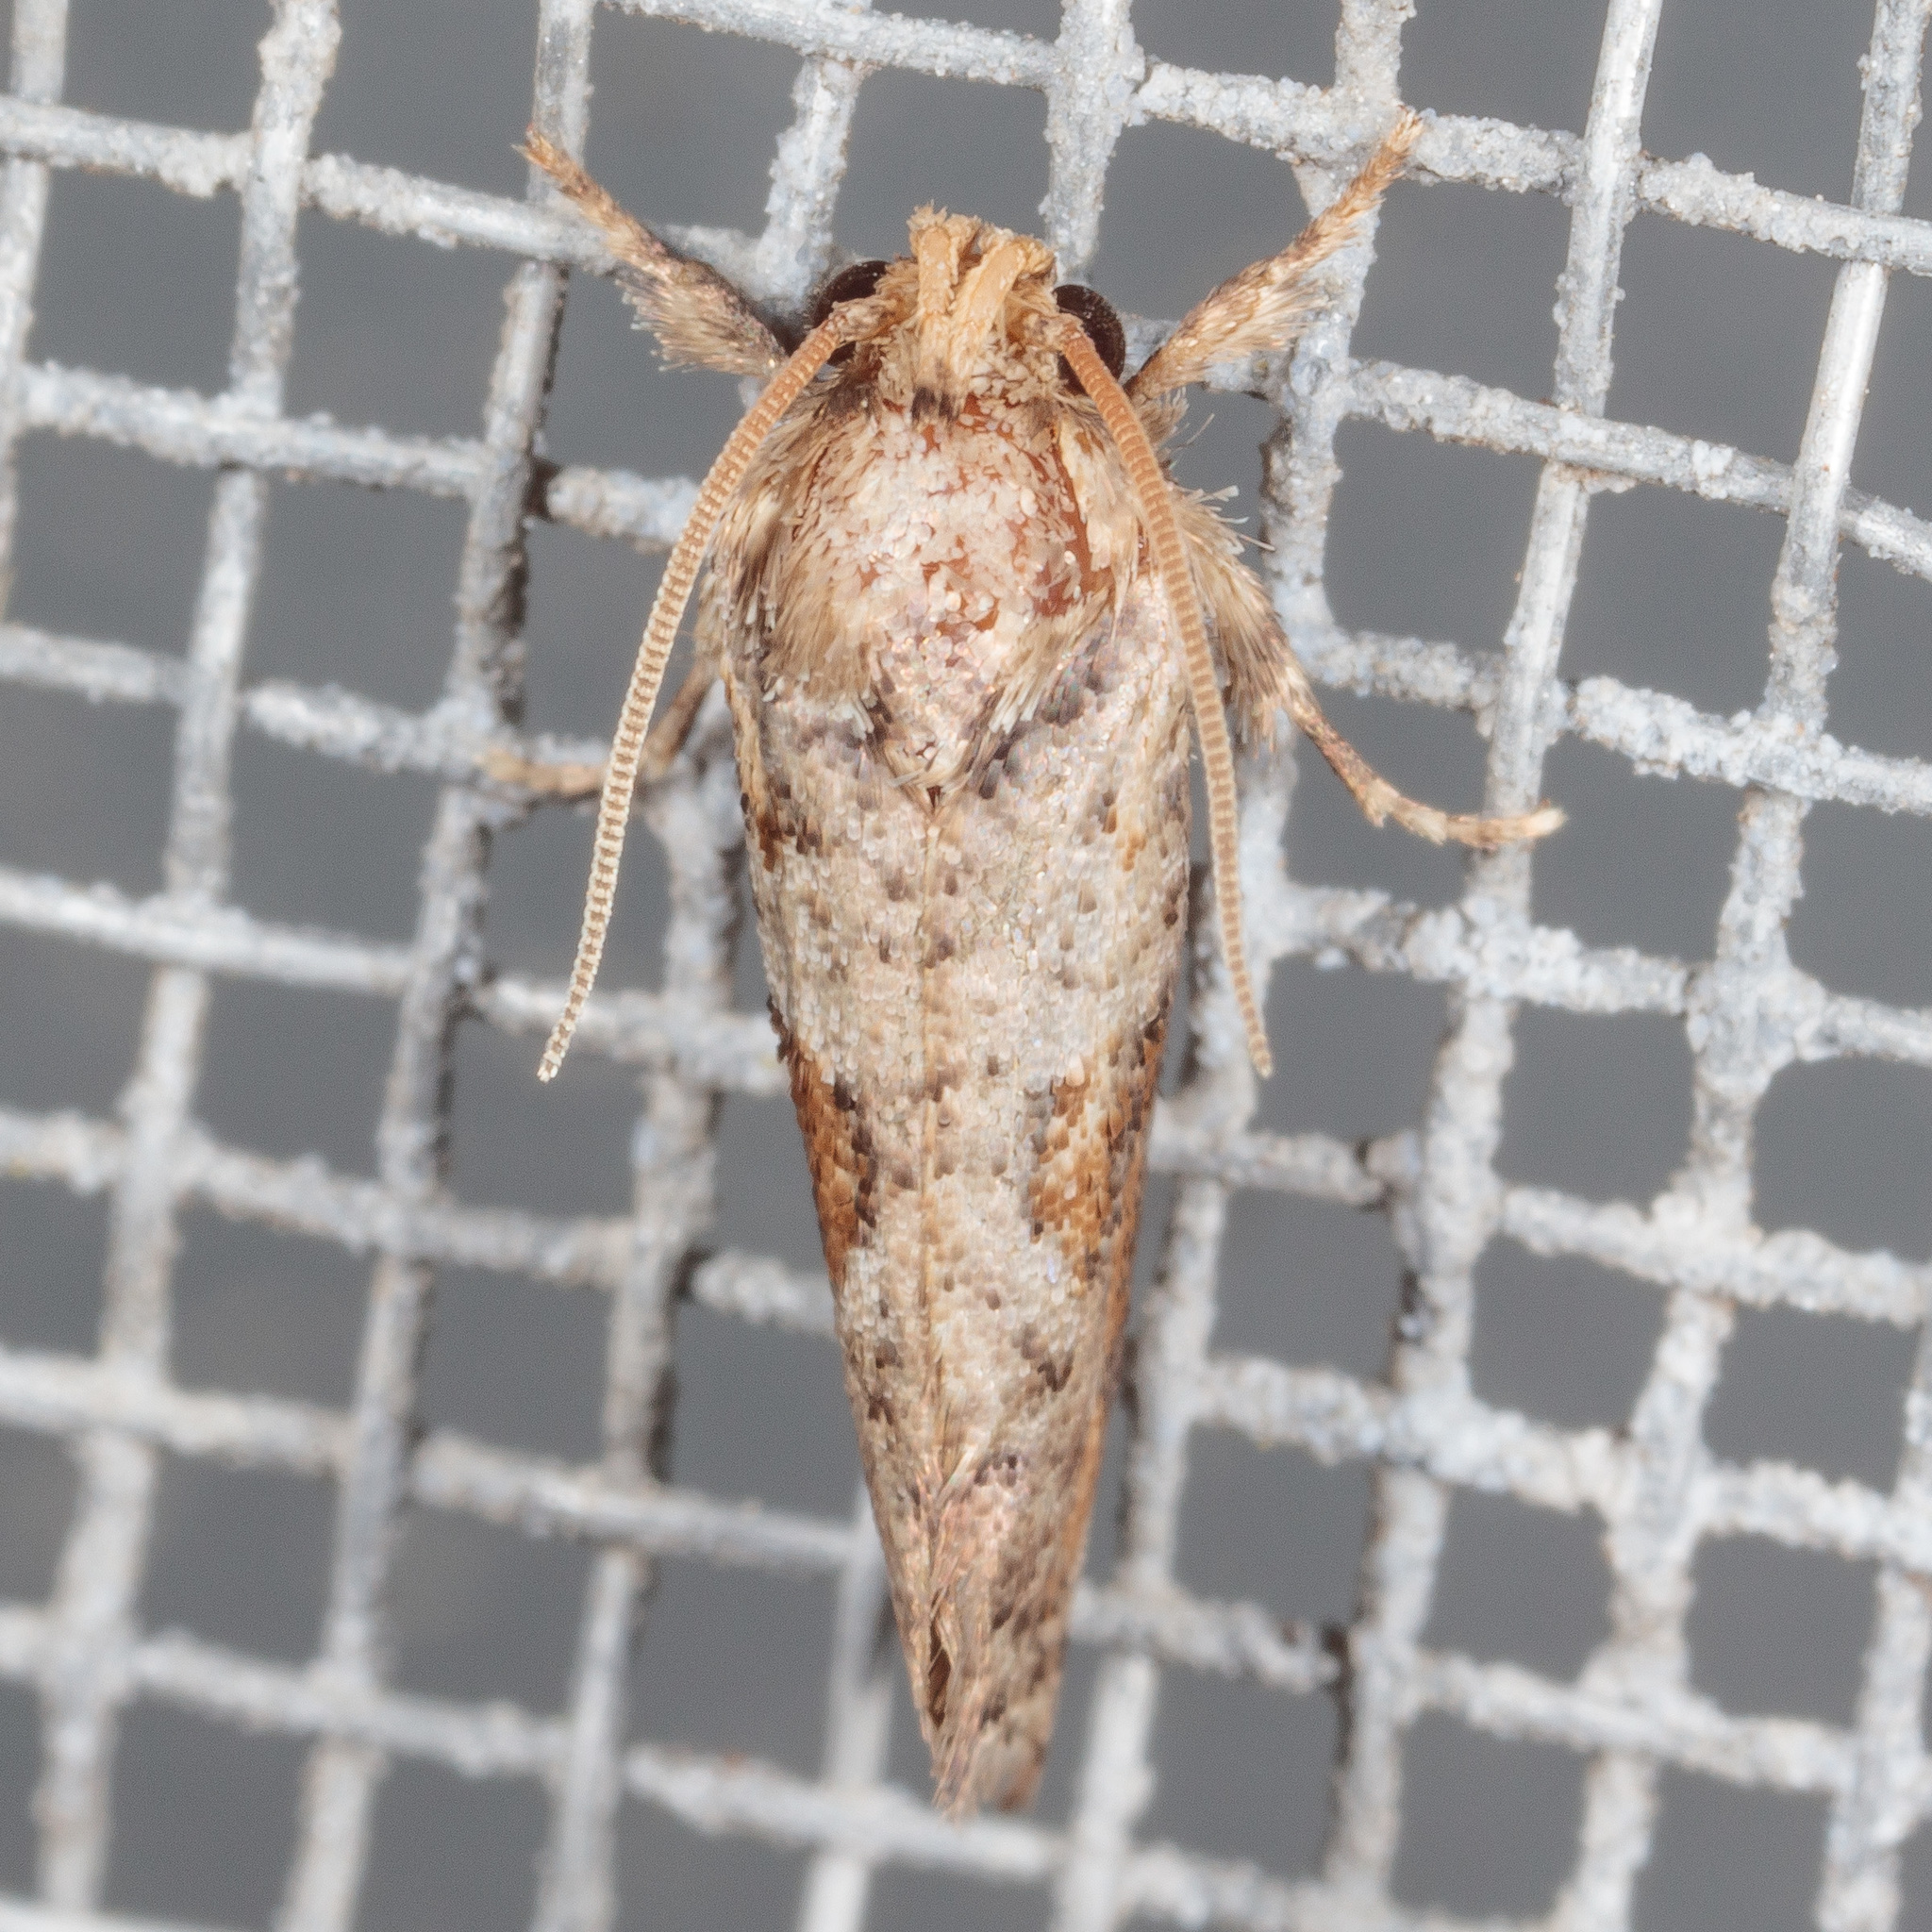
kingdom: Animalia
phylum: Arthropoda
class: Insecta
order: Lepidoptera
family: Tineidae
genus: Acrolophus
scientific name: Acrolophus piger
